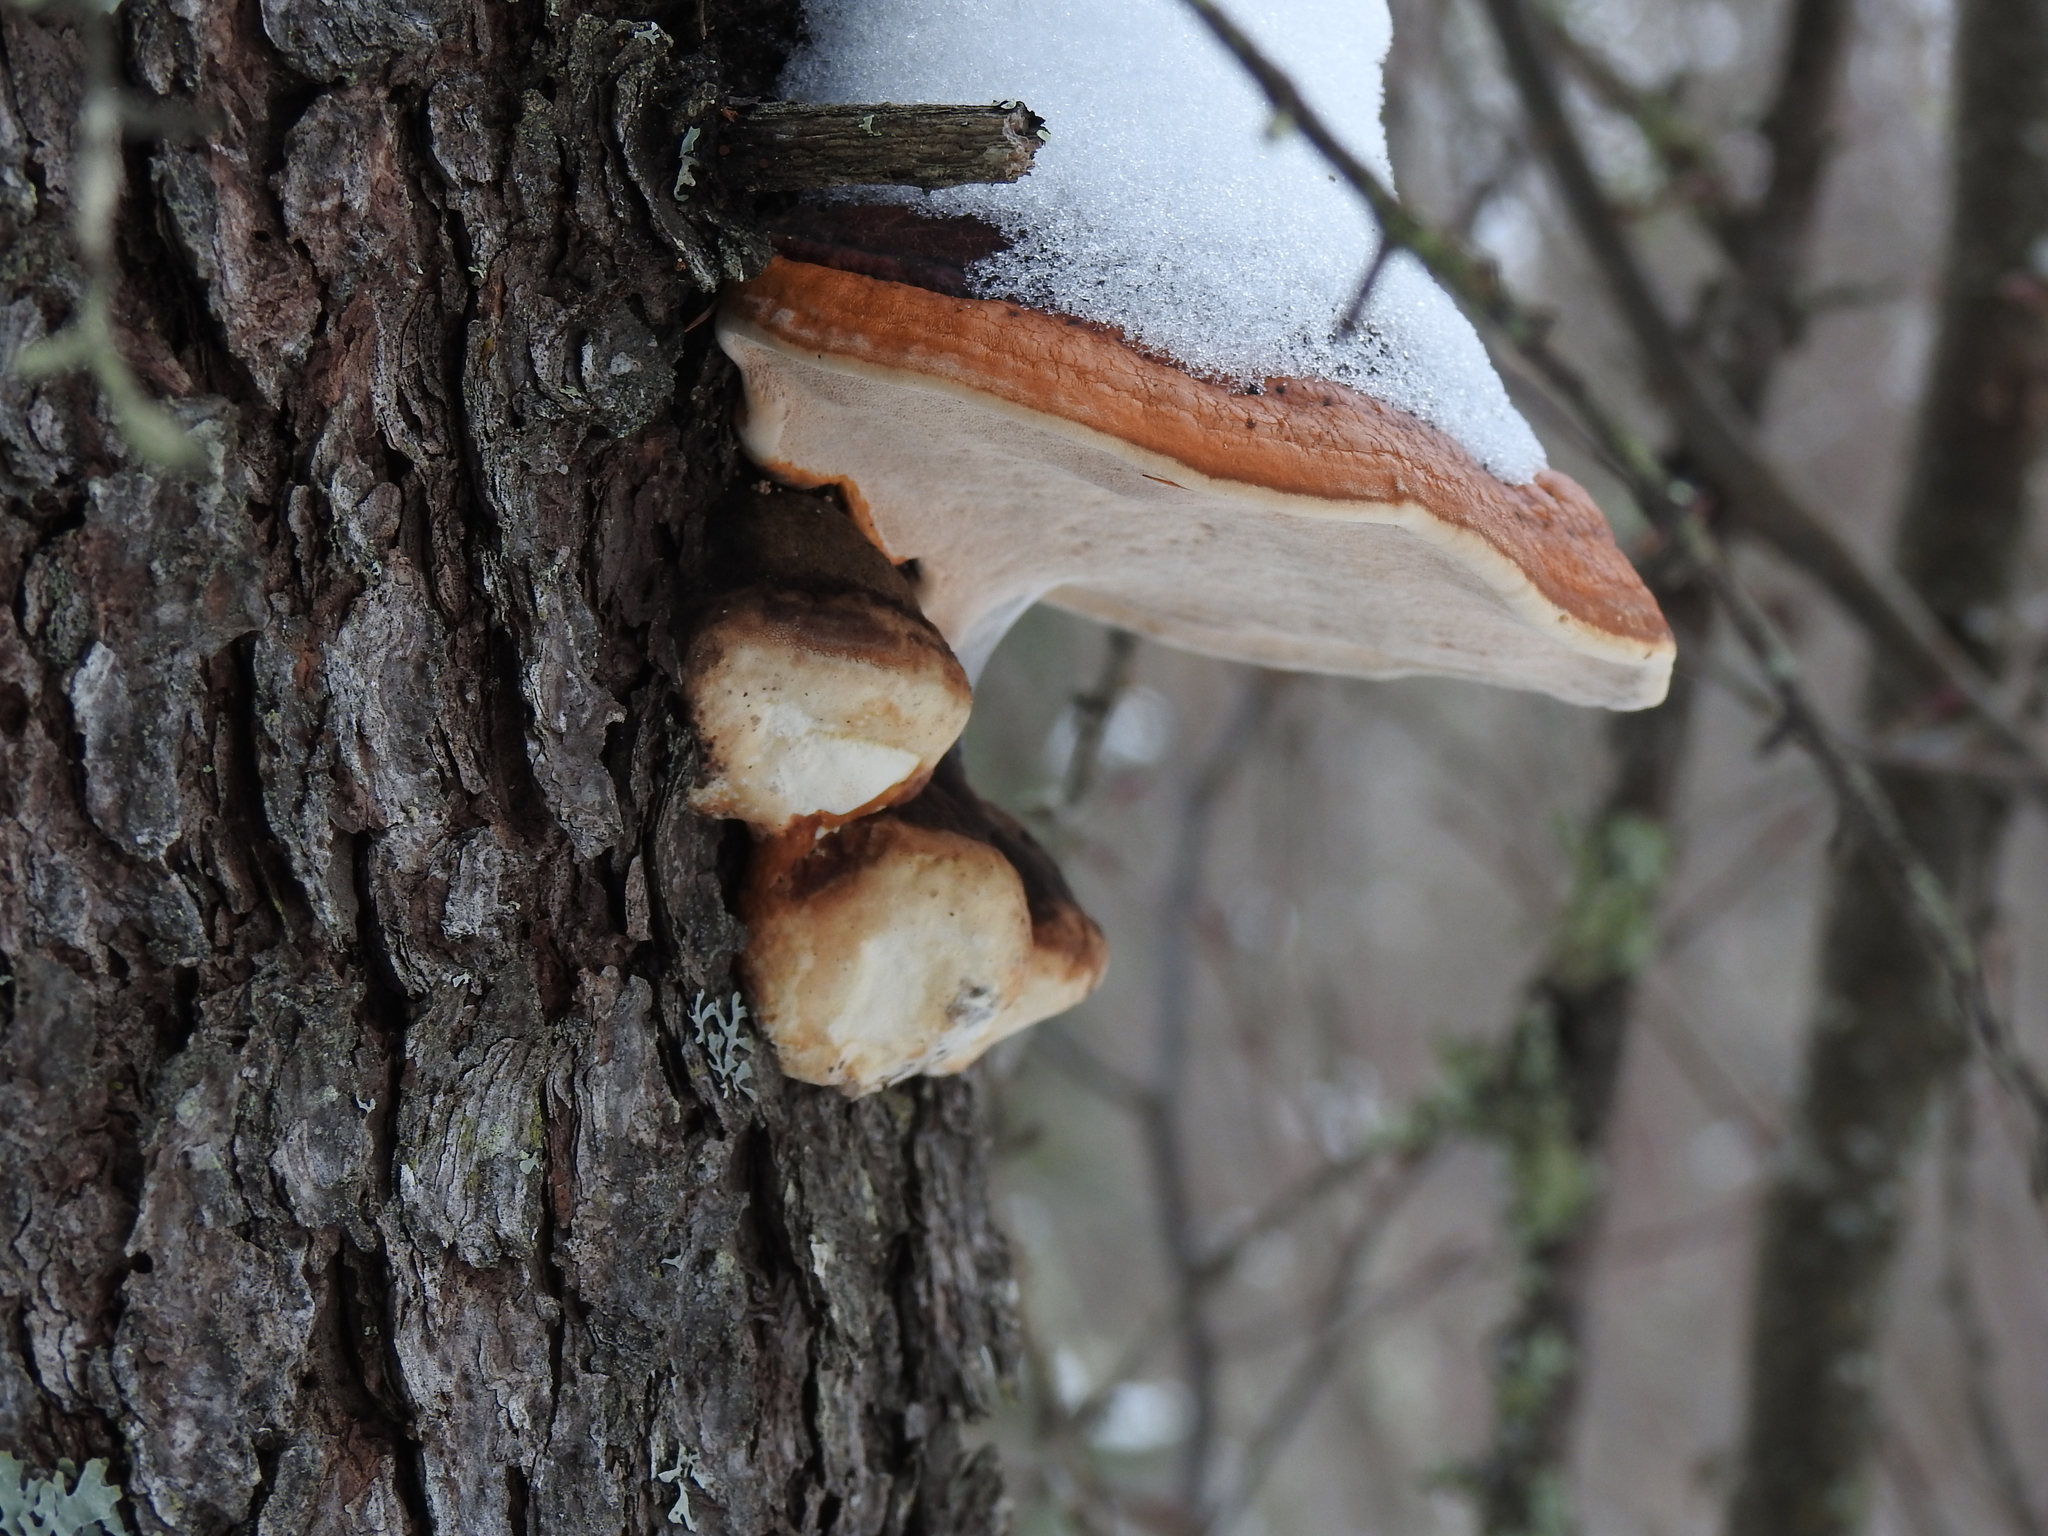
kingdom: Fungi
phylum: Basidiomycota
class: Agaricomycetes
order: Polyporales
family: Fomitopsidaceae
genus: Fomitopsis
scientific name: Fomitopsis mounceae
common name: Northern red belt
